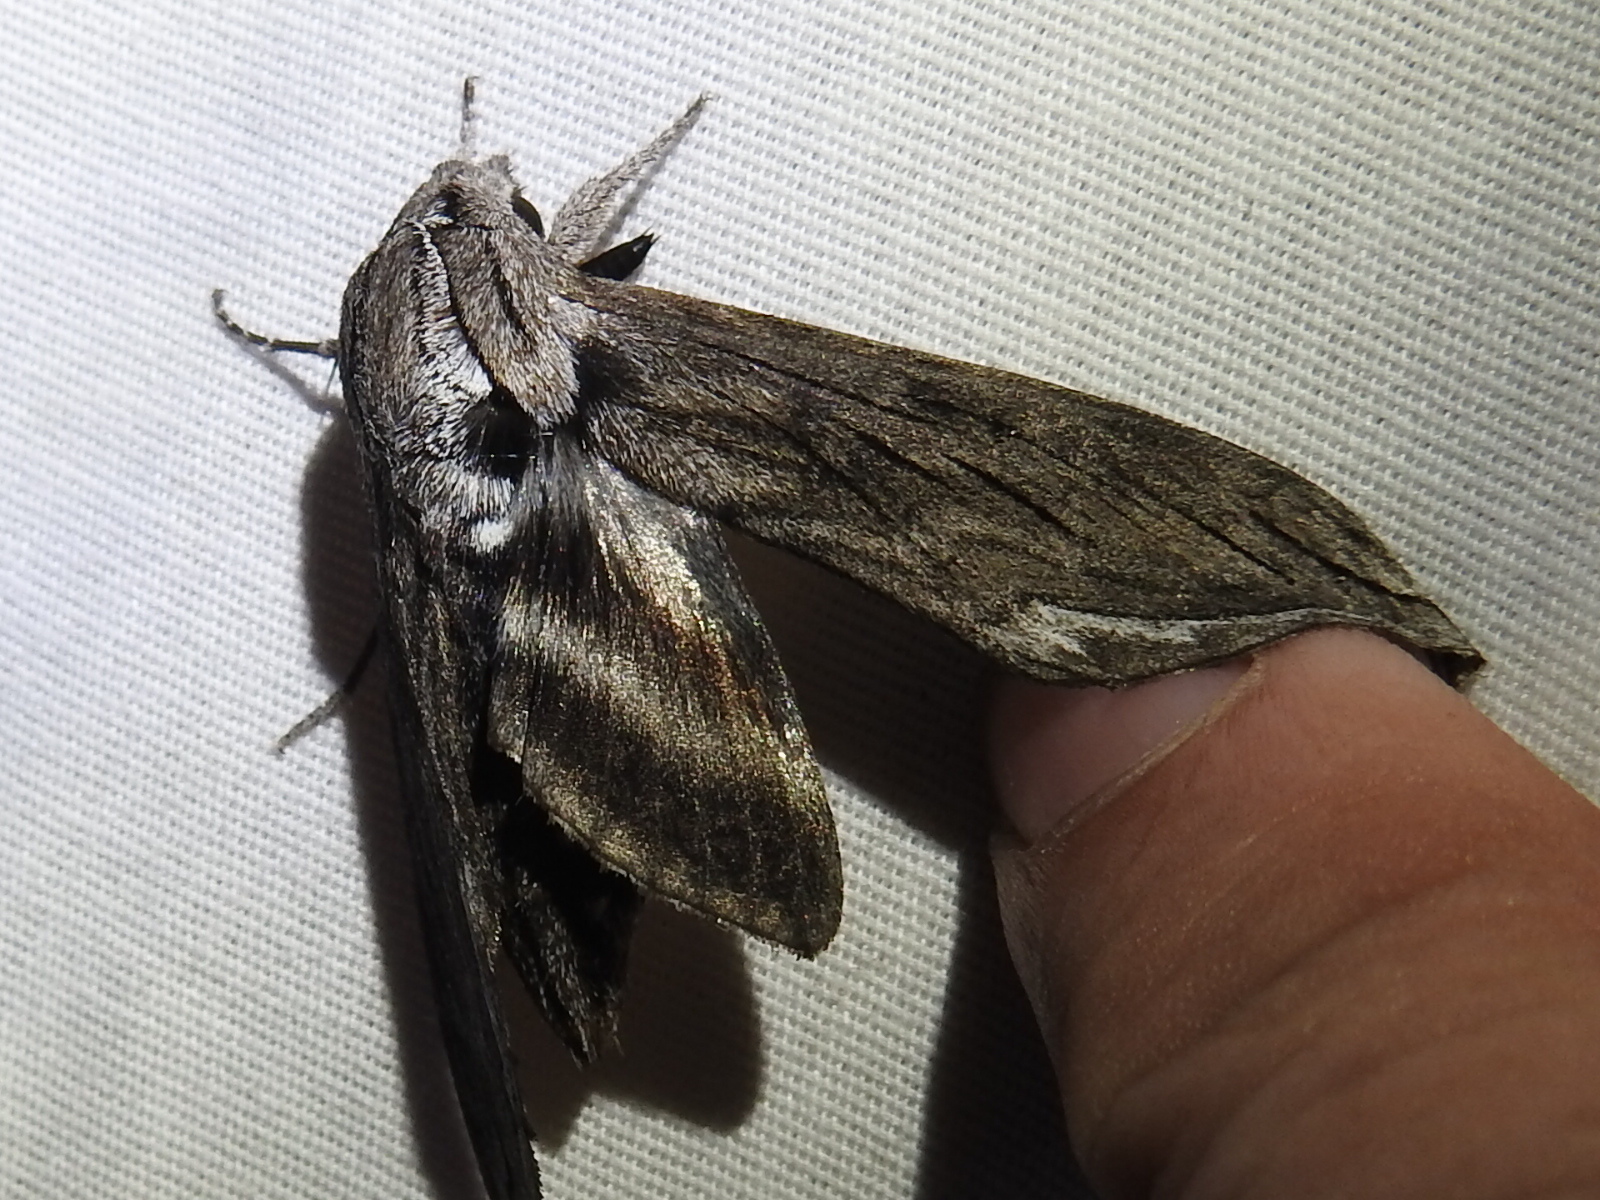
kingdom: Animalia
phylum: Arthropoda
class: Insecta
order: Lepidoptera
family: Sphingidae
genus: Sphinx
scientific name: Sphinx libocedrus
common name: Incense cedar sphinx
